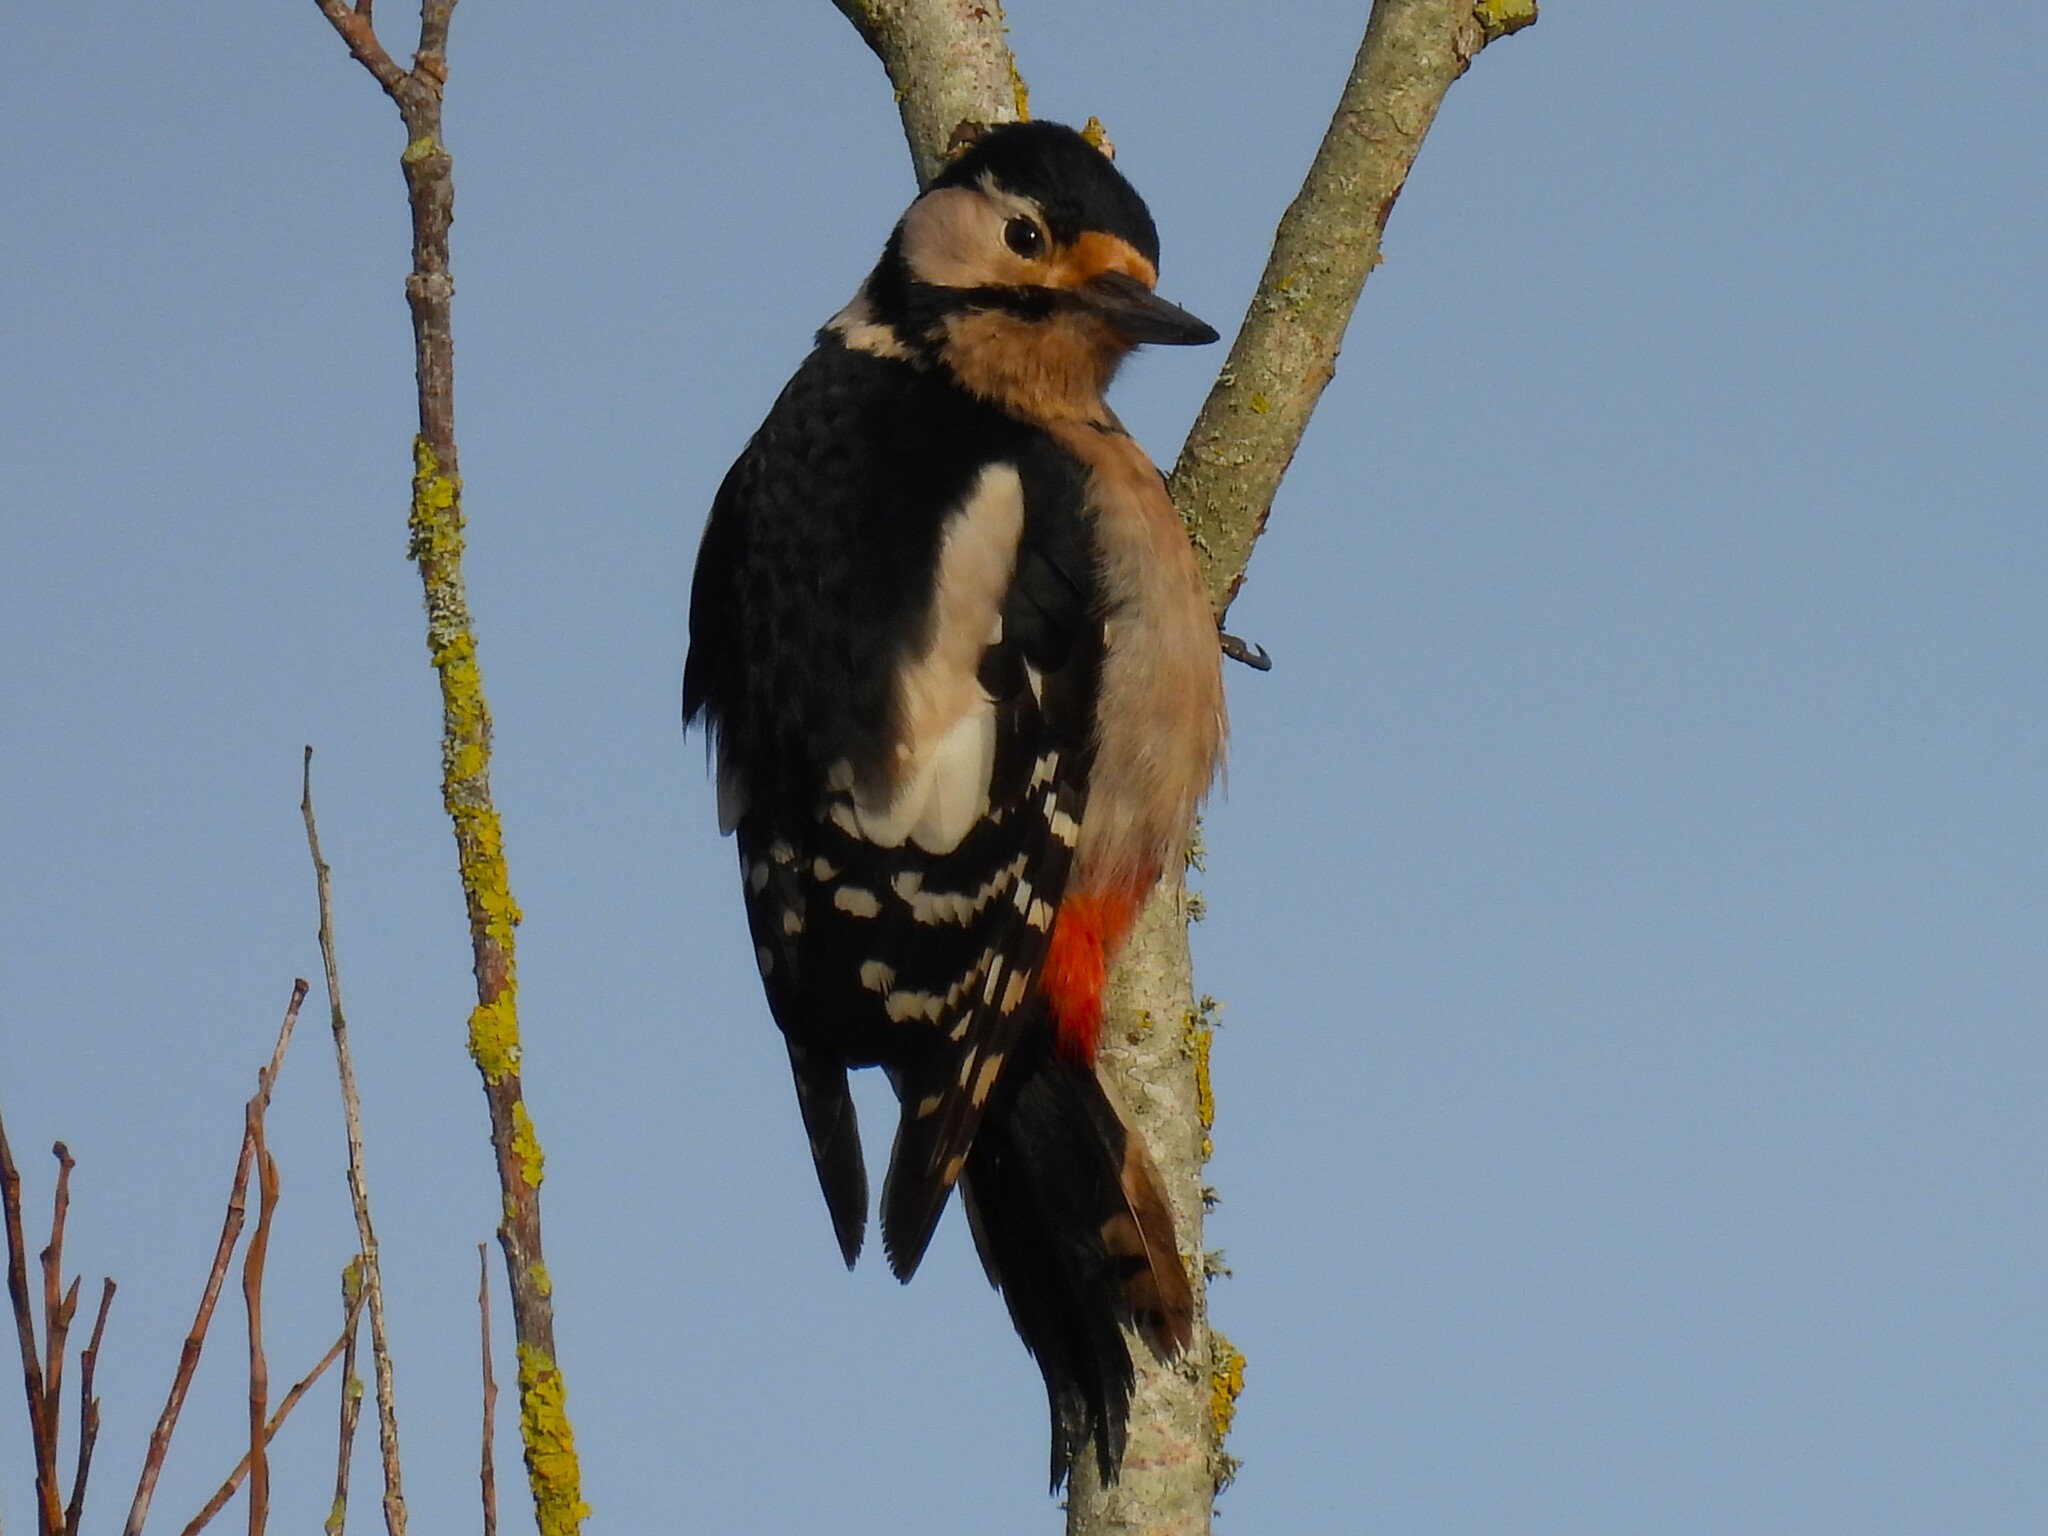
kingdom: Animalia
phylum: Chordata
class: Aves
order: Piciformes
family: Picidae
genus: Dendrocopos
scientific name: Dendrocopos major
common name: Great spotted woodpecker
